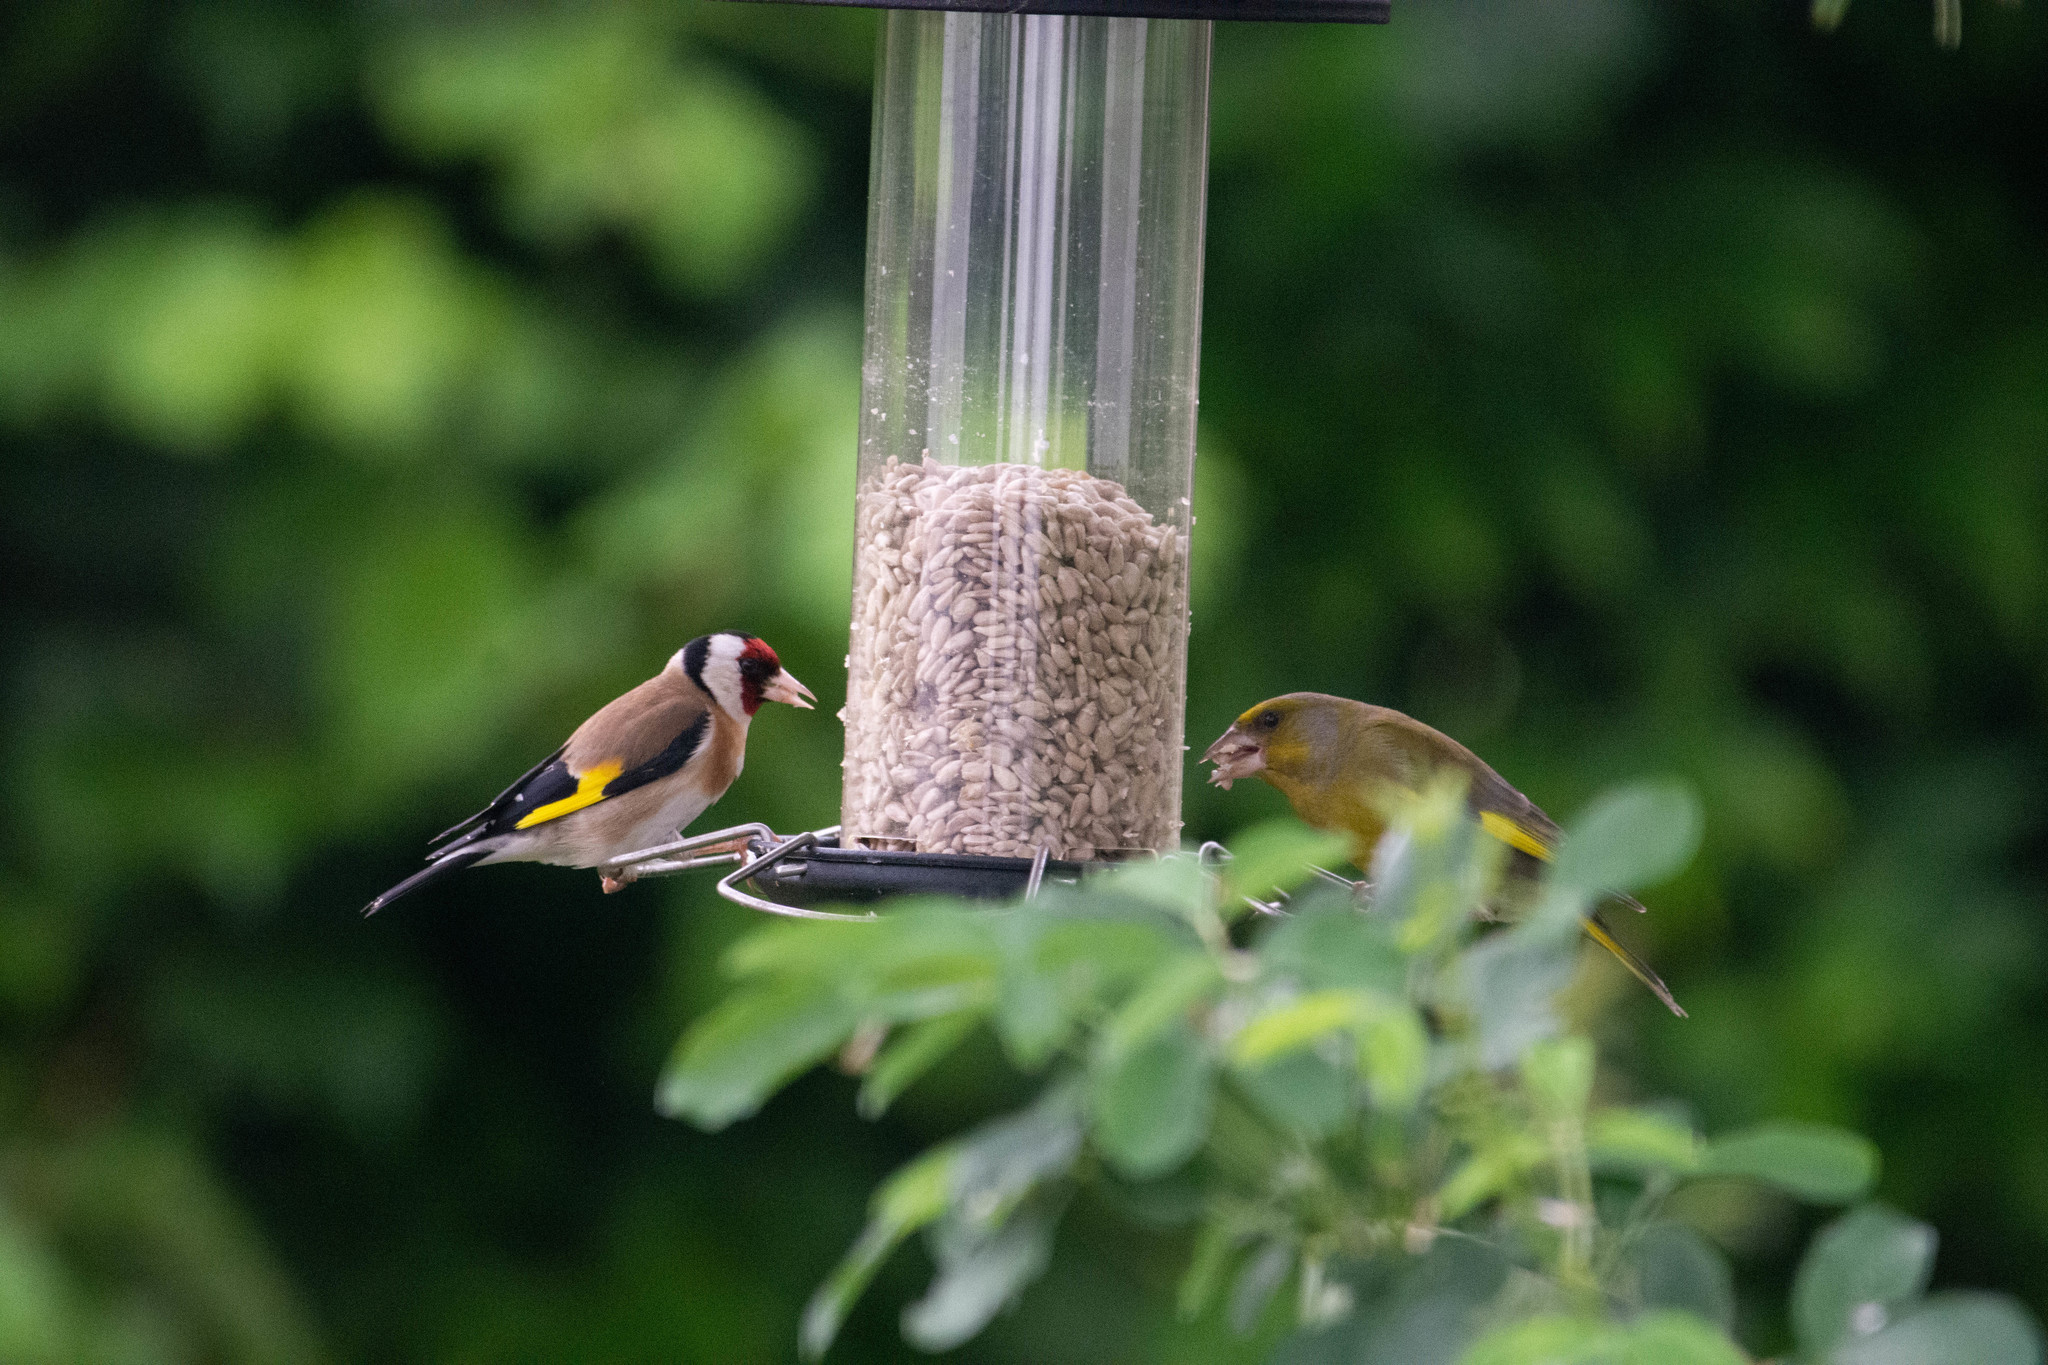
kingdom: Plantae
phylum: Tracheophyta
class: Liliopsida
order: Poales
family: Poaceae
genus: Chloris
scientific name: Chloris chloris
